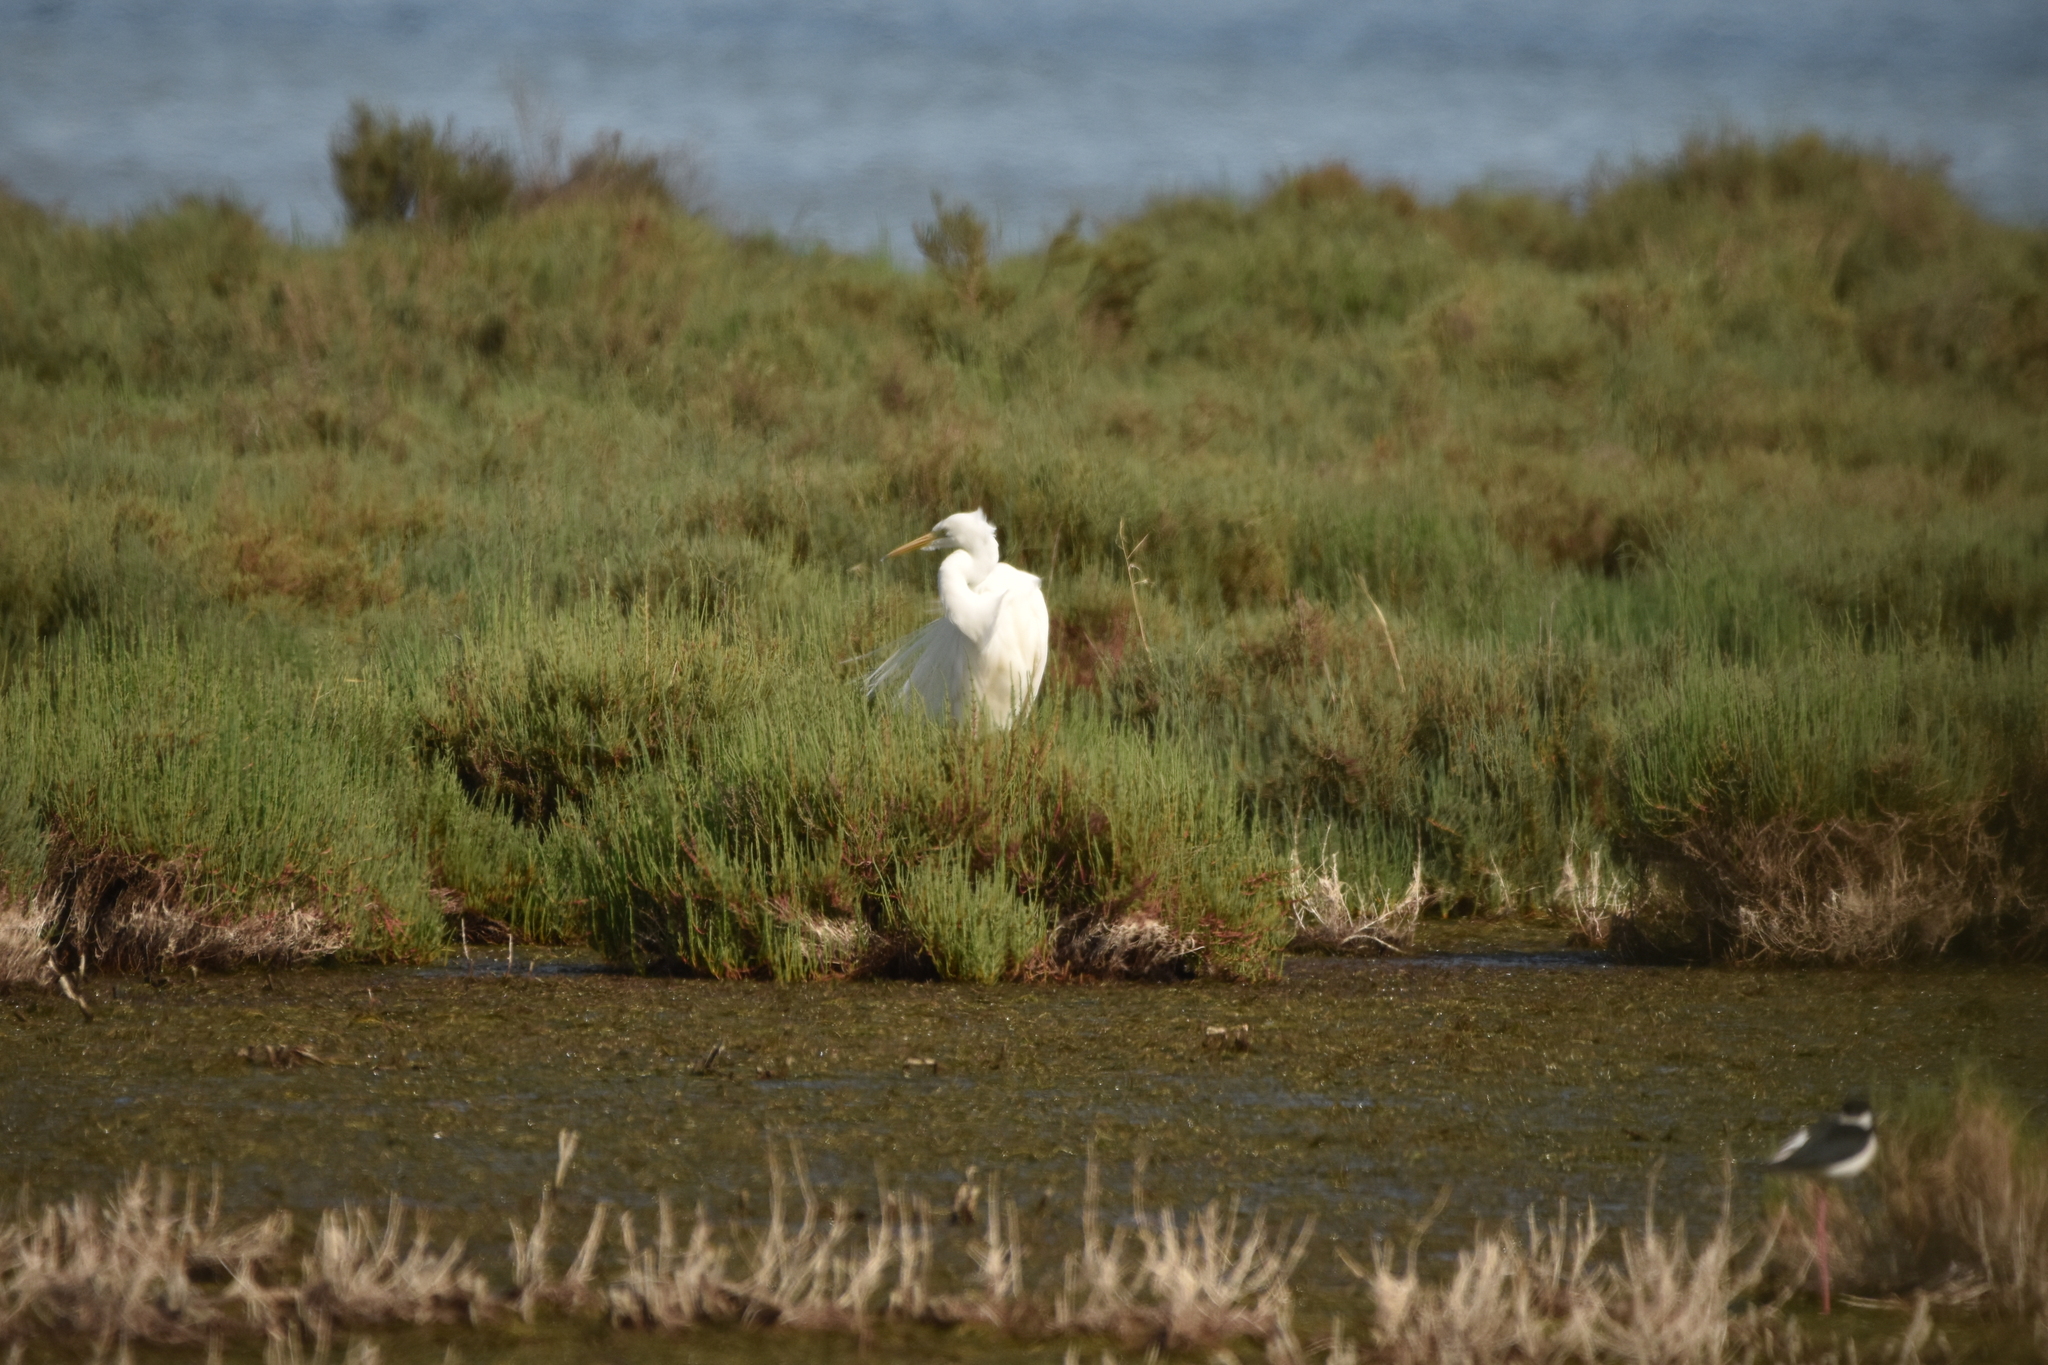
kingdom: Animalia
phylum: Chordata
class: Aves
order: Pelecaniformes
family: Ardeidae
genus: Ardea
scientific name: Ardea alba
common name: Great egret
